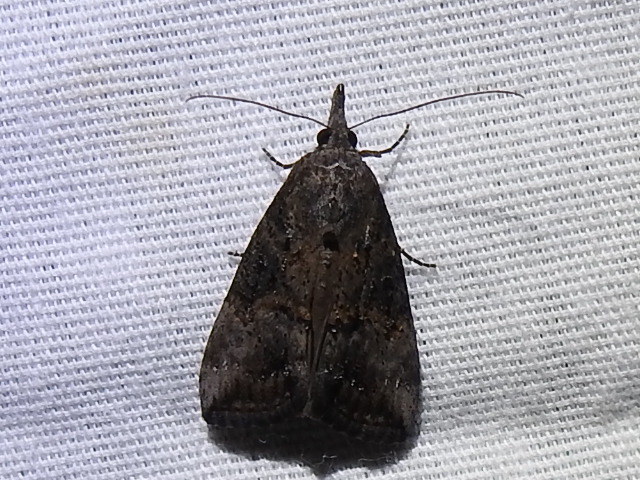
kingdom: Animalia
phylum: Arthropoda
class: Insecta
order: Lepidoptera
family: Erebidae
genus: Hypena
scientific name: Hypena scabra
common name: Green cloverworm
